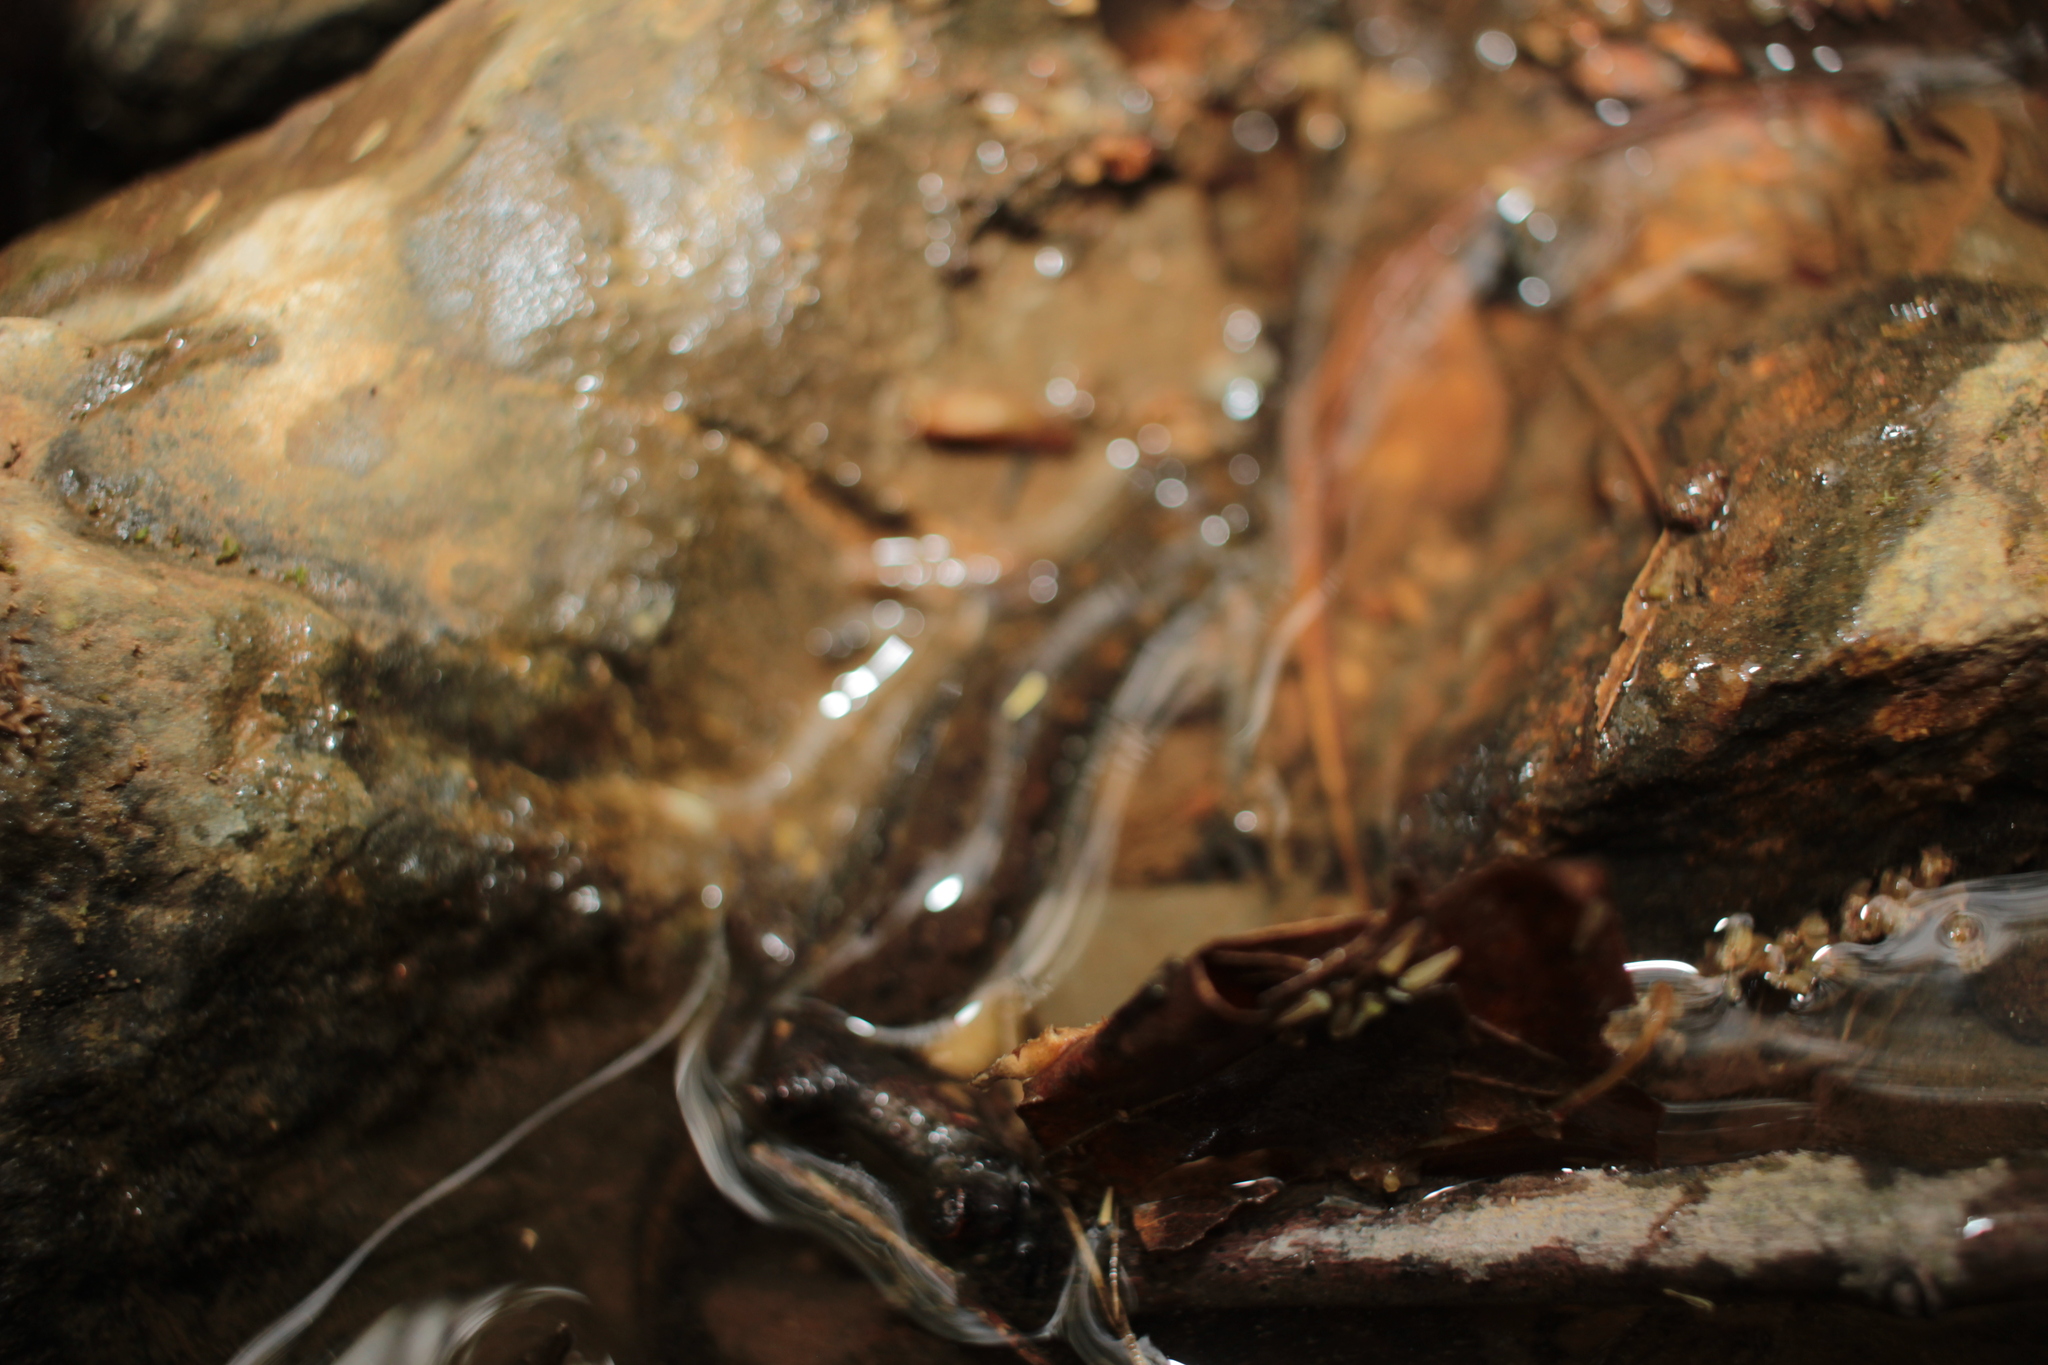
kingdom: Animalia
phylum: Chordata
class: Amphibia
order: Caudata
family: Plethodontidae
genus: Desmognathus
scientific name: Desmognathus planiceps
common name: Flat-headed salamander
